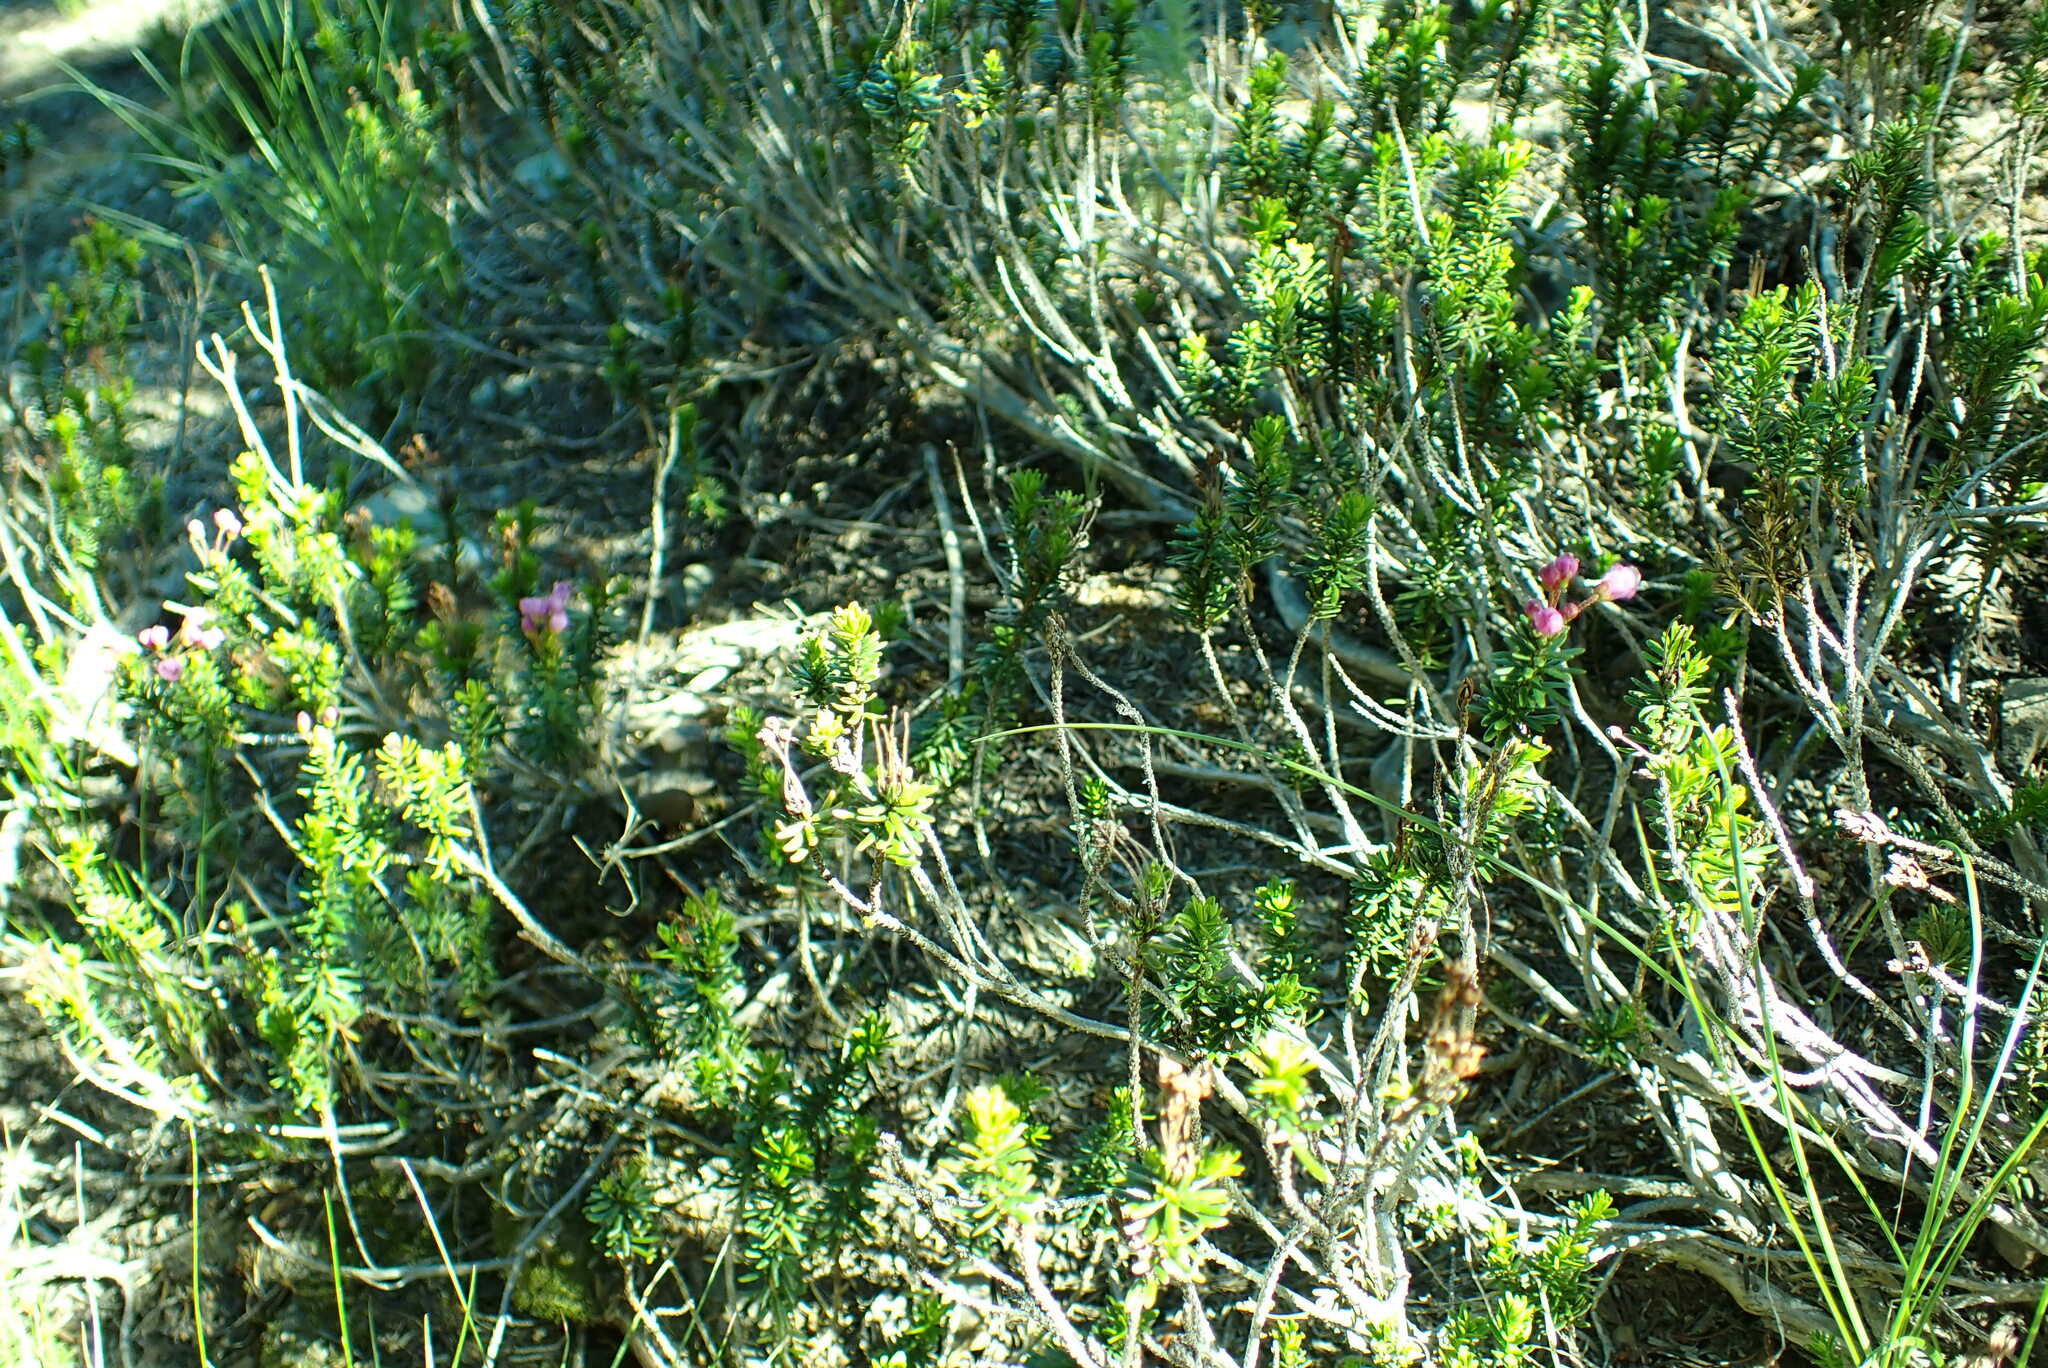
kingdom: Plantae
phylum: Tracheophyta
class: Magnoliopsida
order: Ericales
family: Ericaceae
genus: Phyllodoce
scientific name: Phyllodoce empetriformis
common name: Pink mountain heather
